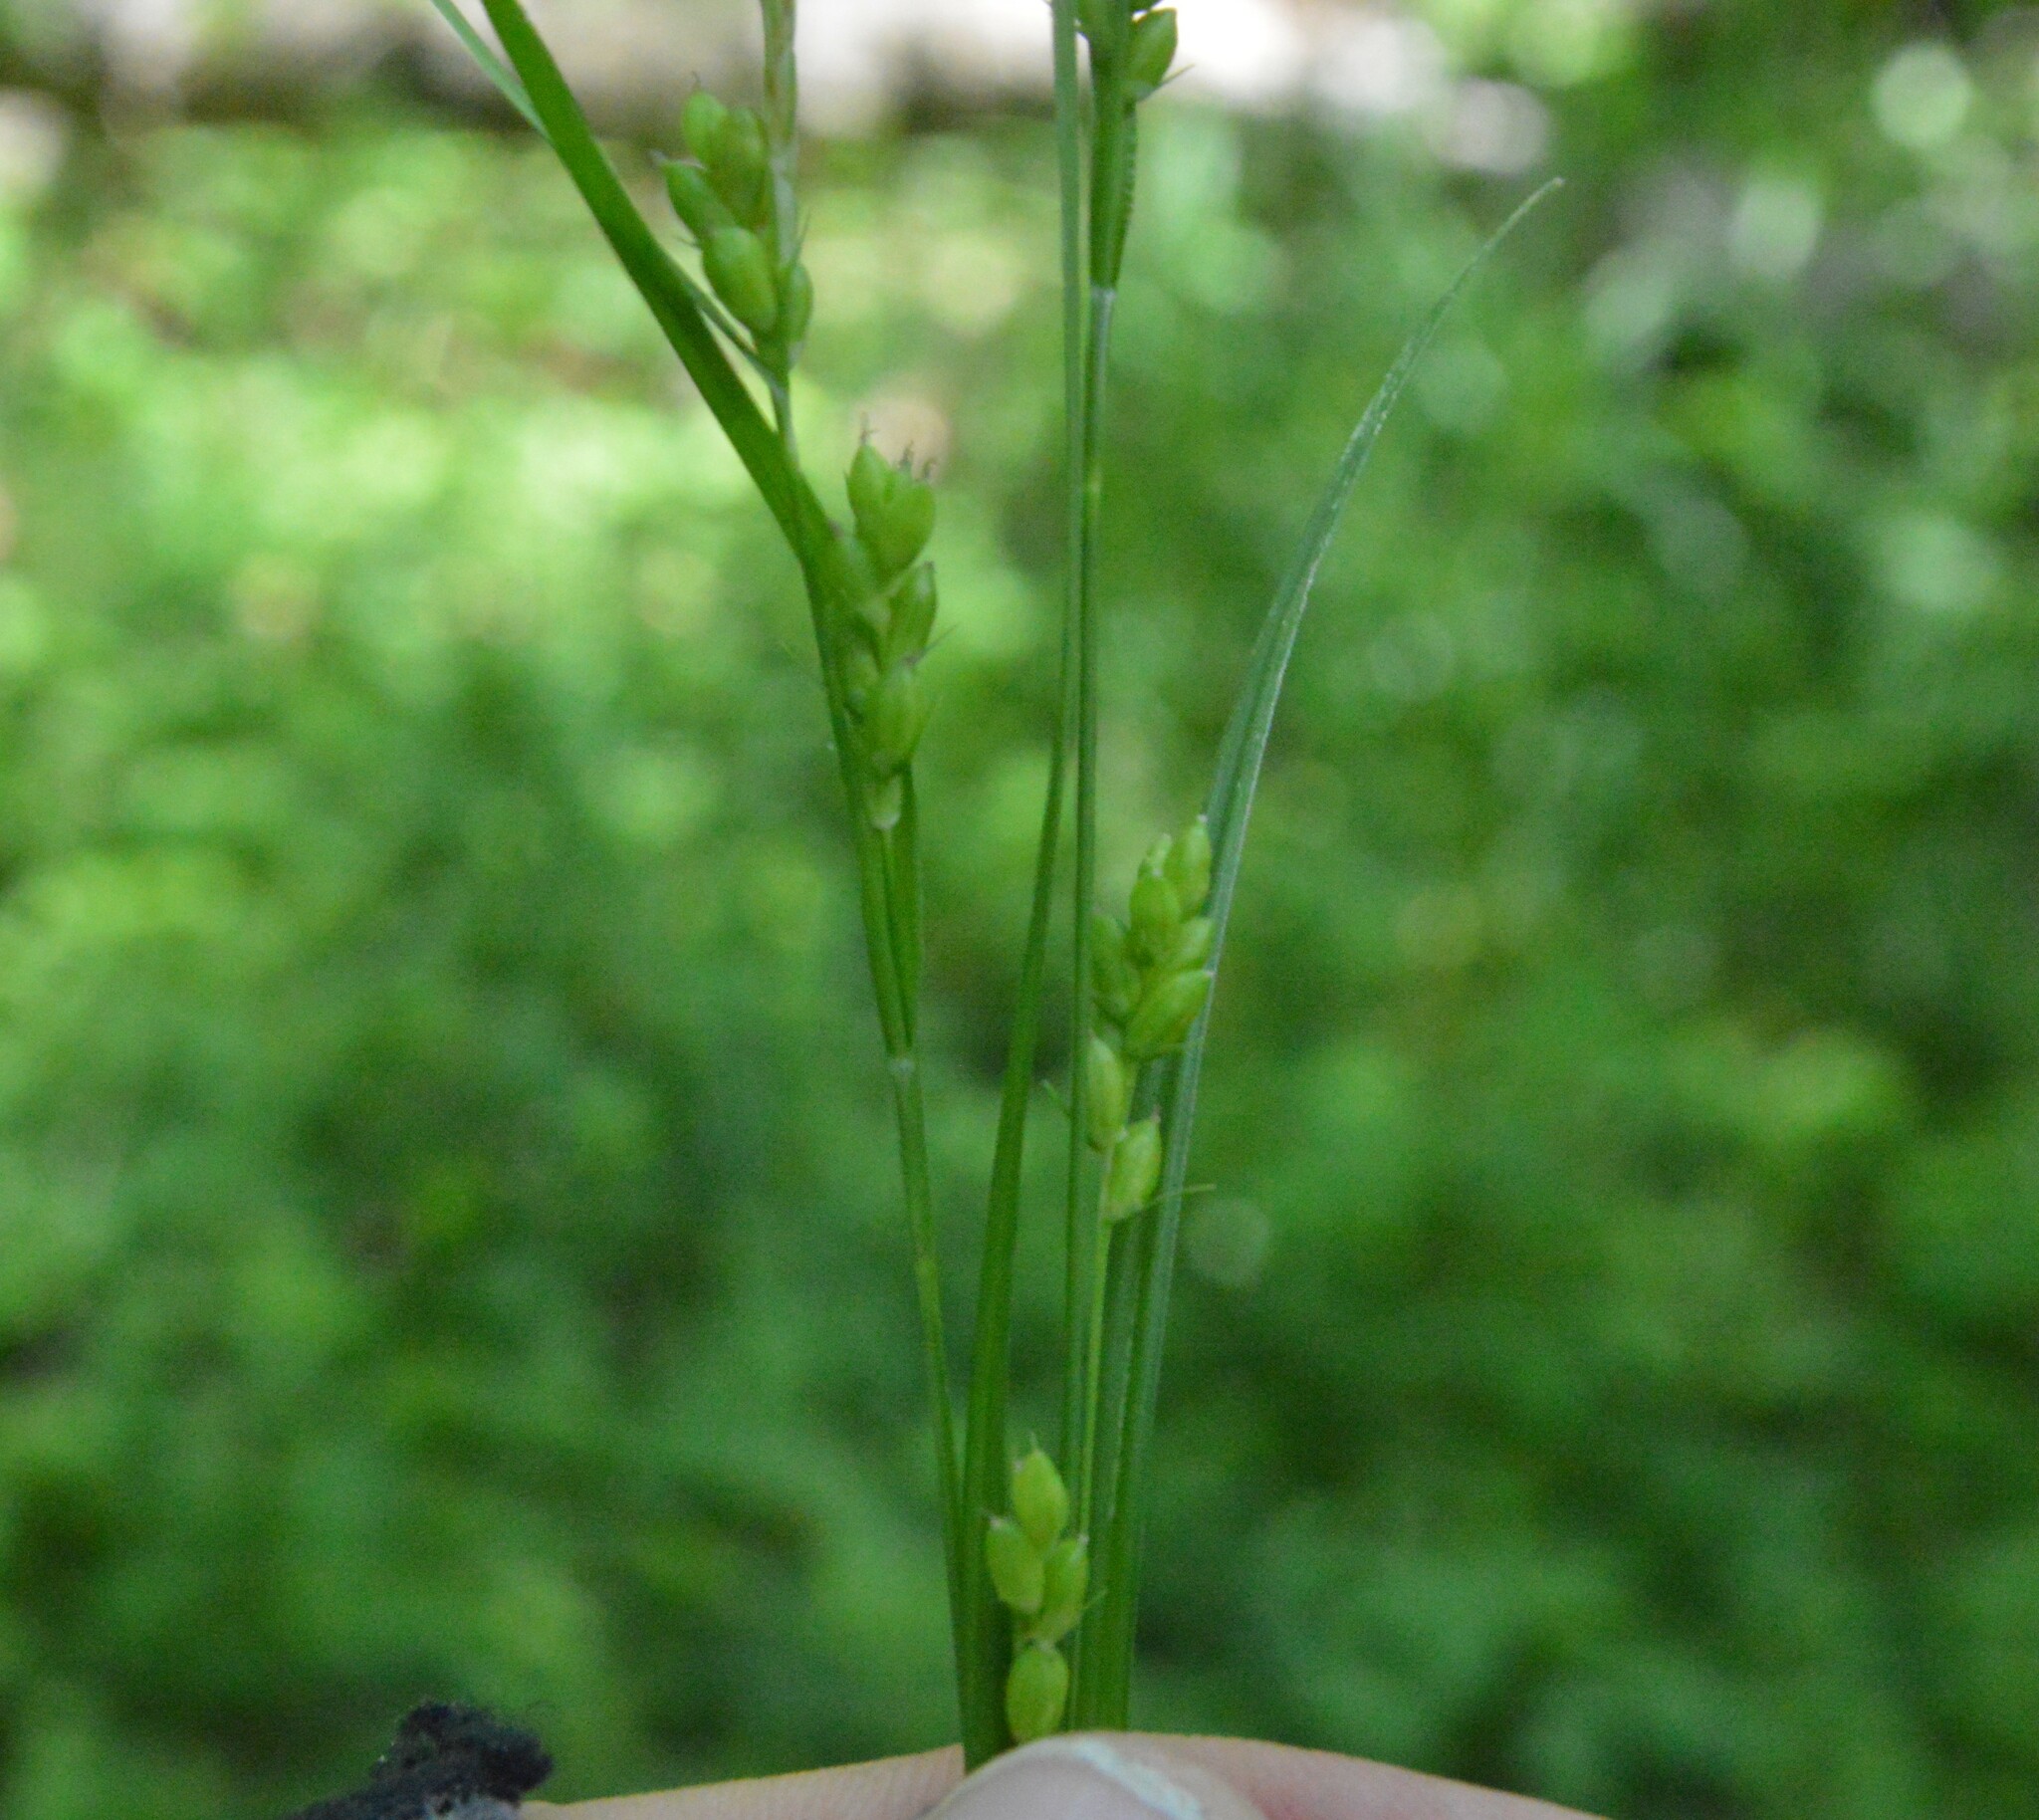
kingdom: Plantae
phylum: Tracheophyta
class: Liliopsida
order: Poales
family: Cyperaceae
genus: Carex
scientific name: Carex corrugata
